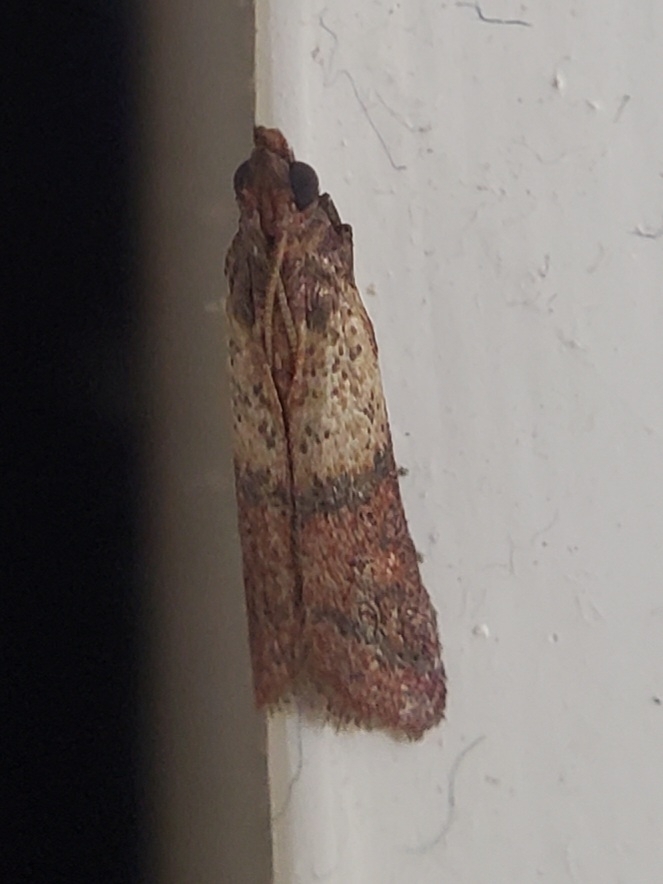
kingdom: Animalia
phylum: Arthropoda
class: Insecta
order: Lepidoptera
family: Pyralidae
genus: Plodia
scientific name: Plodia interpunctella
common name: Indian meal moth
